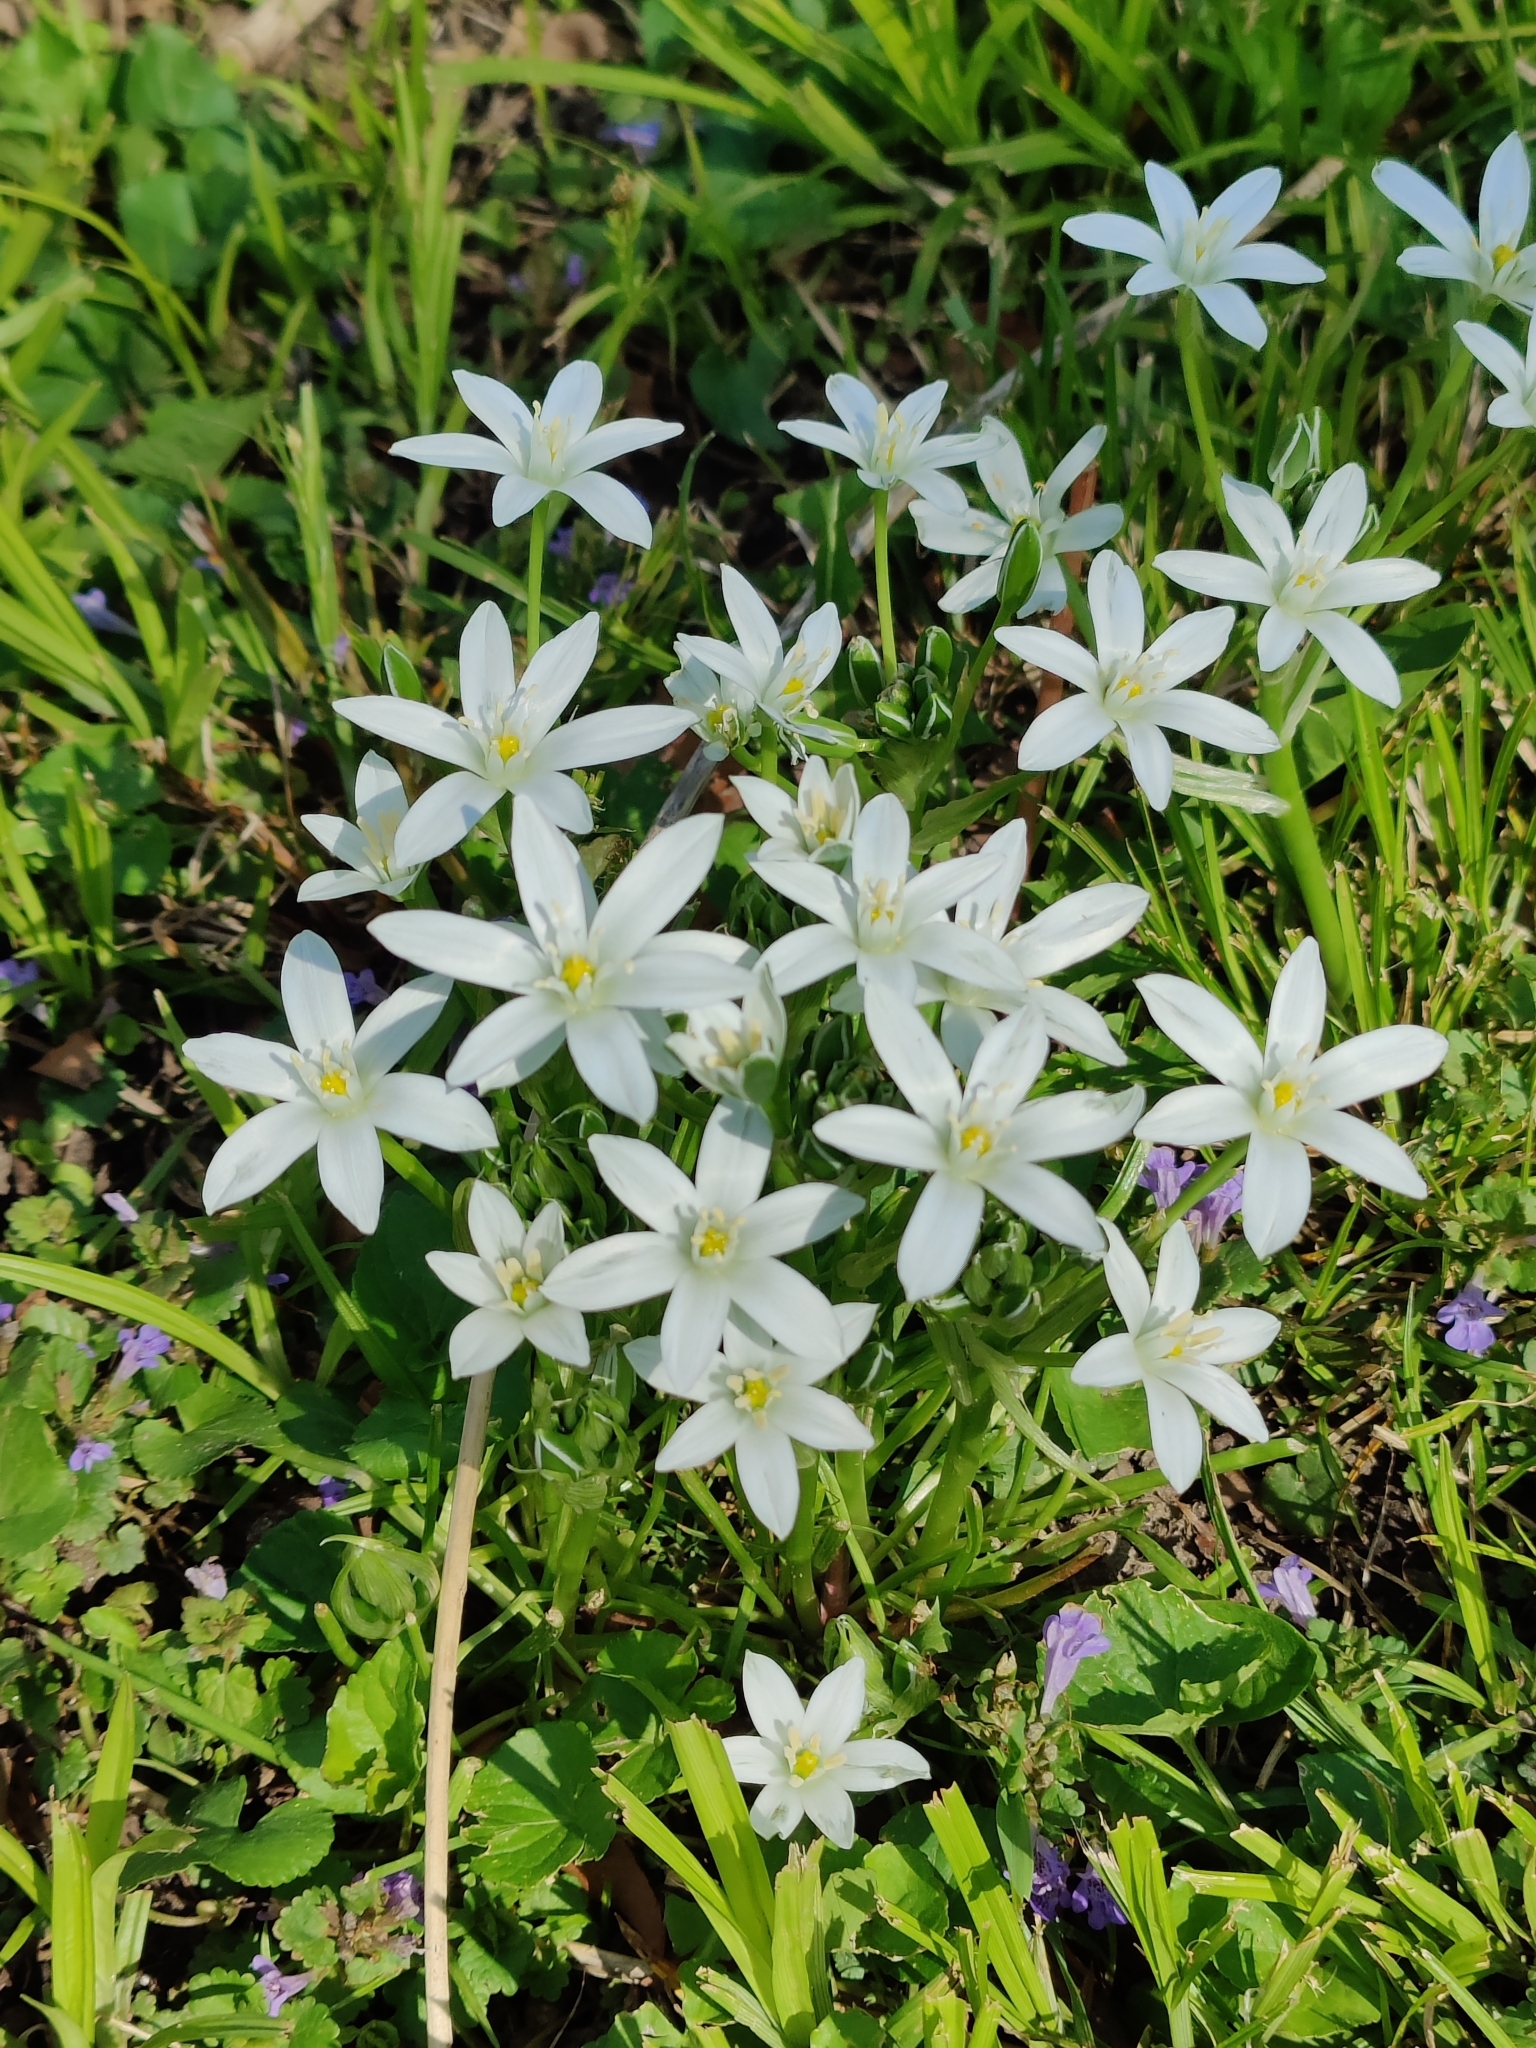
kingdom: Plantae
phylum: Tracheophyta
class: Liliopsida
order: Asparagales
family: Asparagaceae
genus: Ornithogalum
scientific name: Ornithogalum umbellatum
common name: Garden star-of-bethlehem
